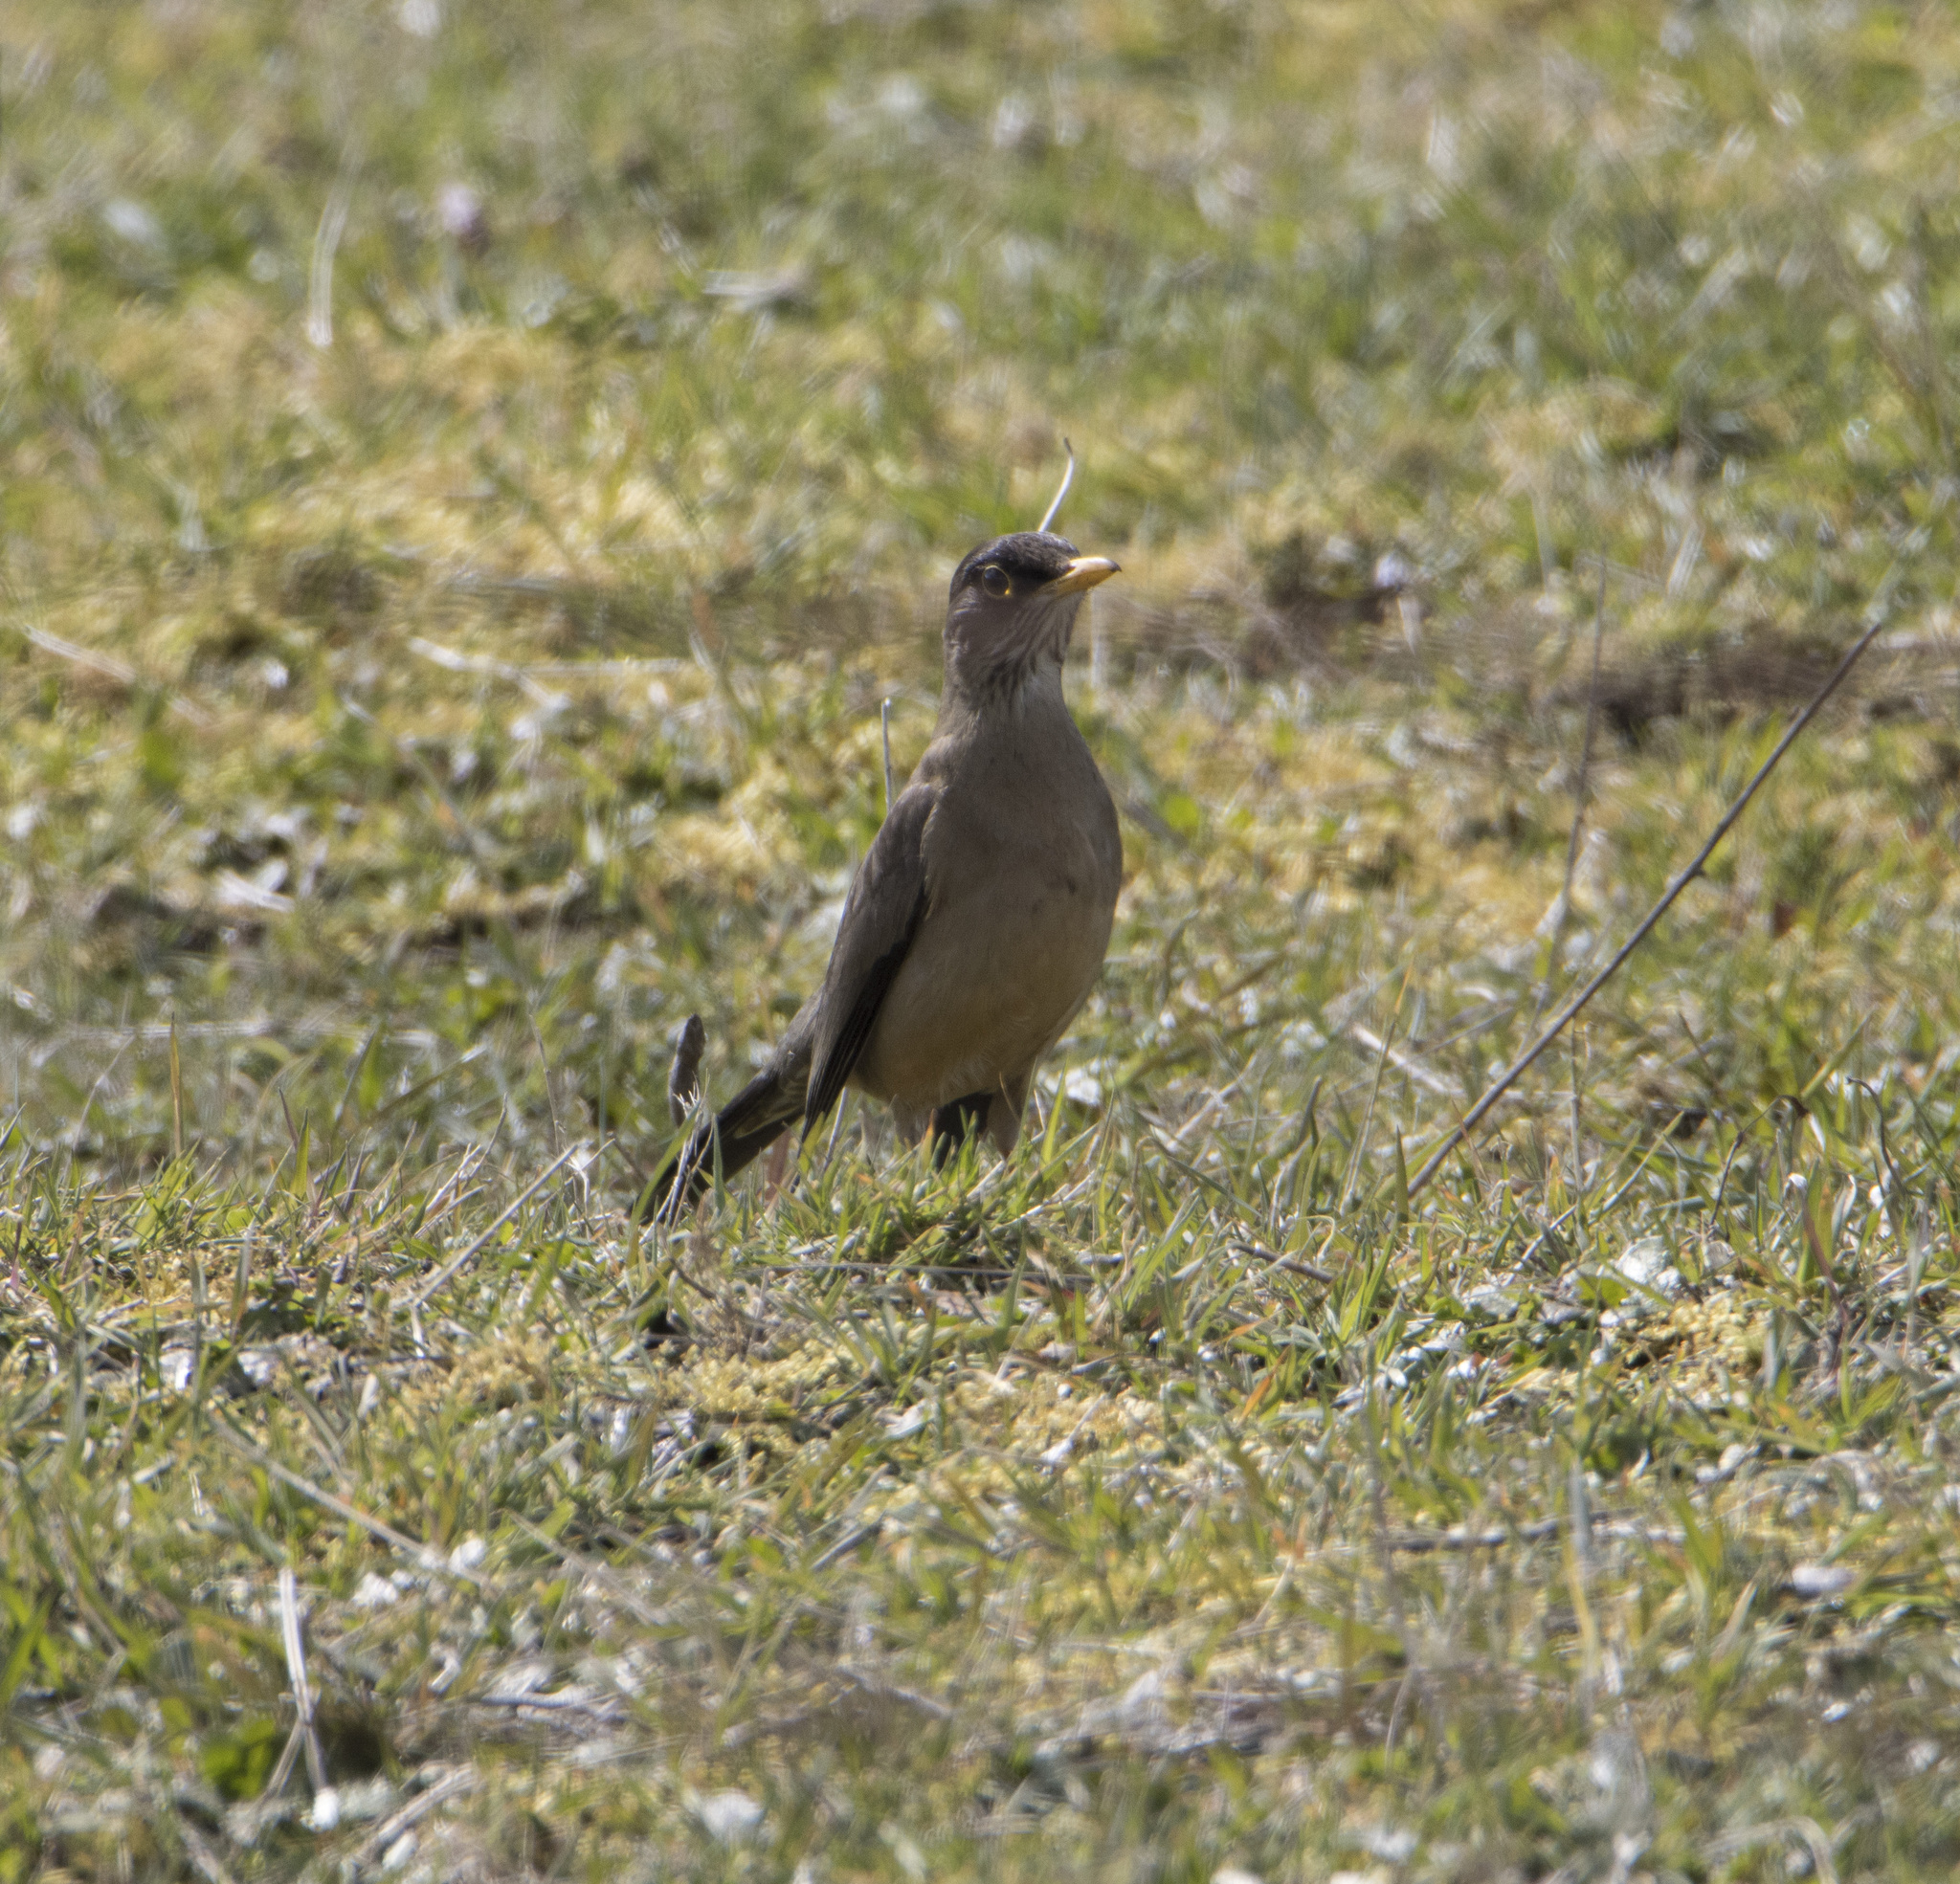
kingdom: Animalia
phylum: Chordata
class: Aves
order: Passeriformes
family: Turdidae
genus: Turdus
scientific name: Turdus falcklandii
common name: Austral thrush
